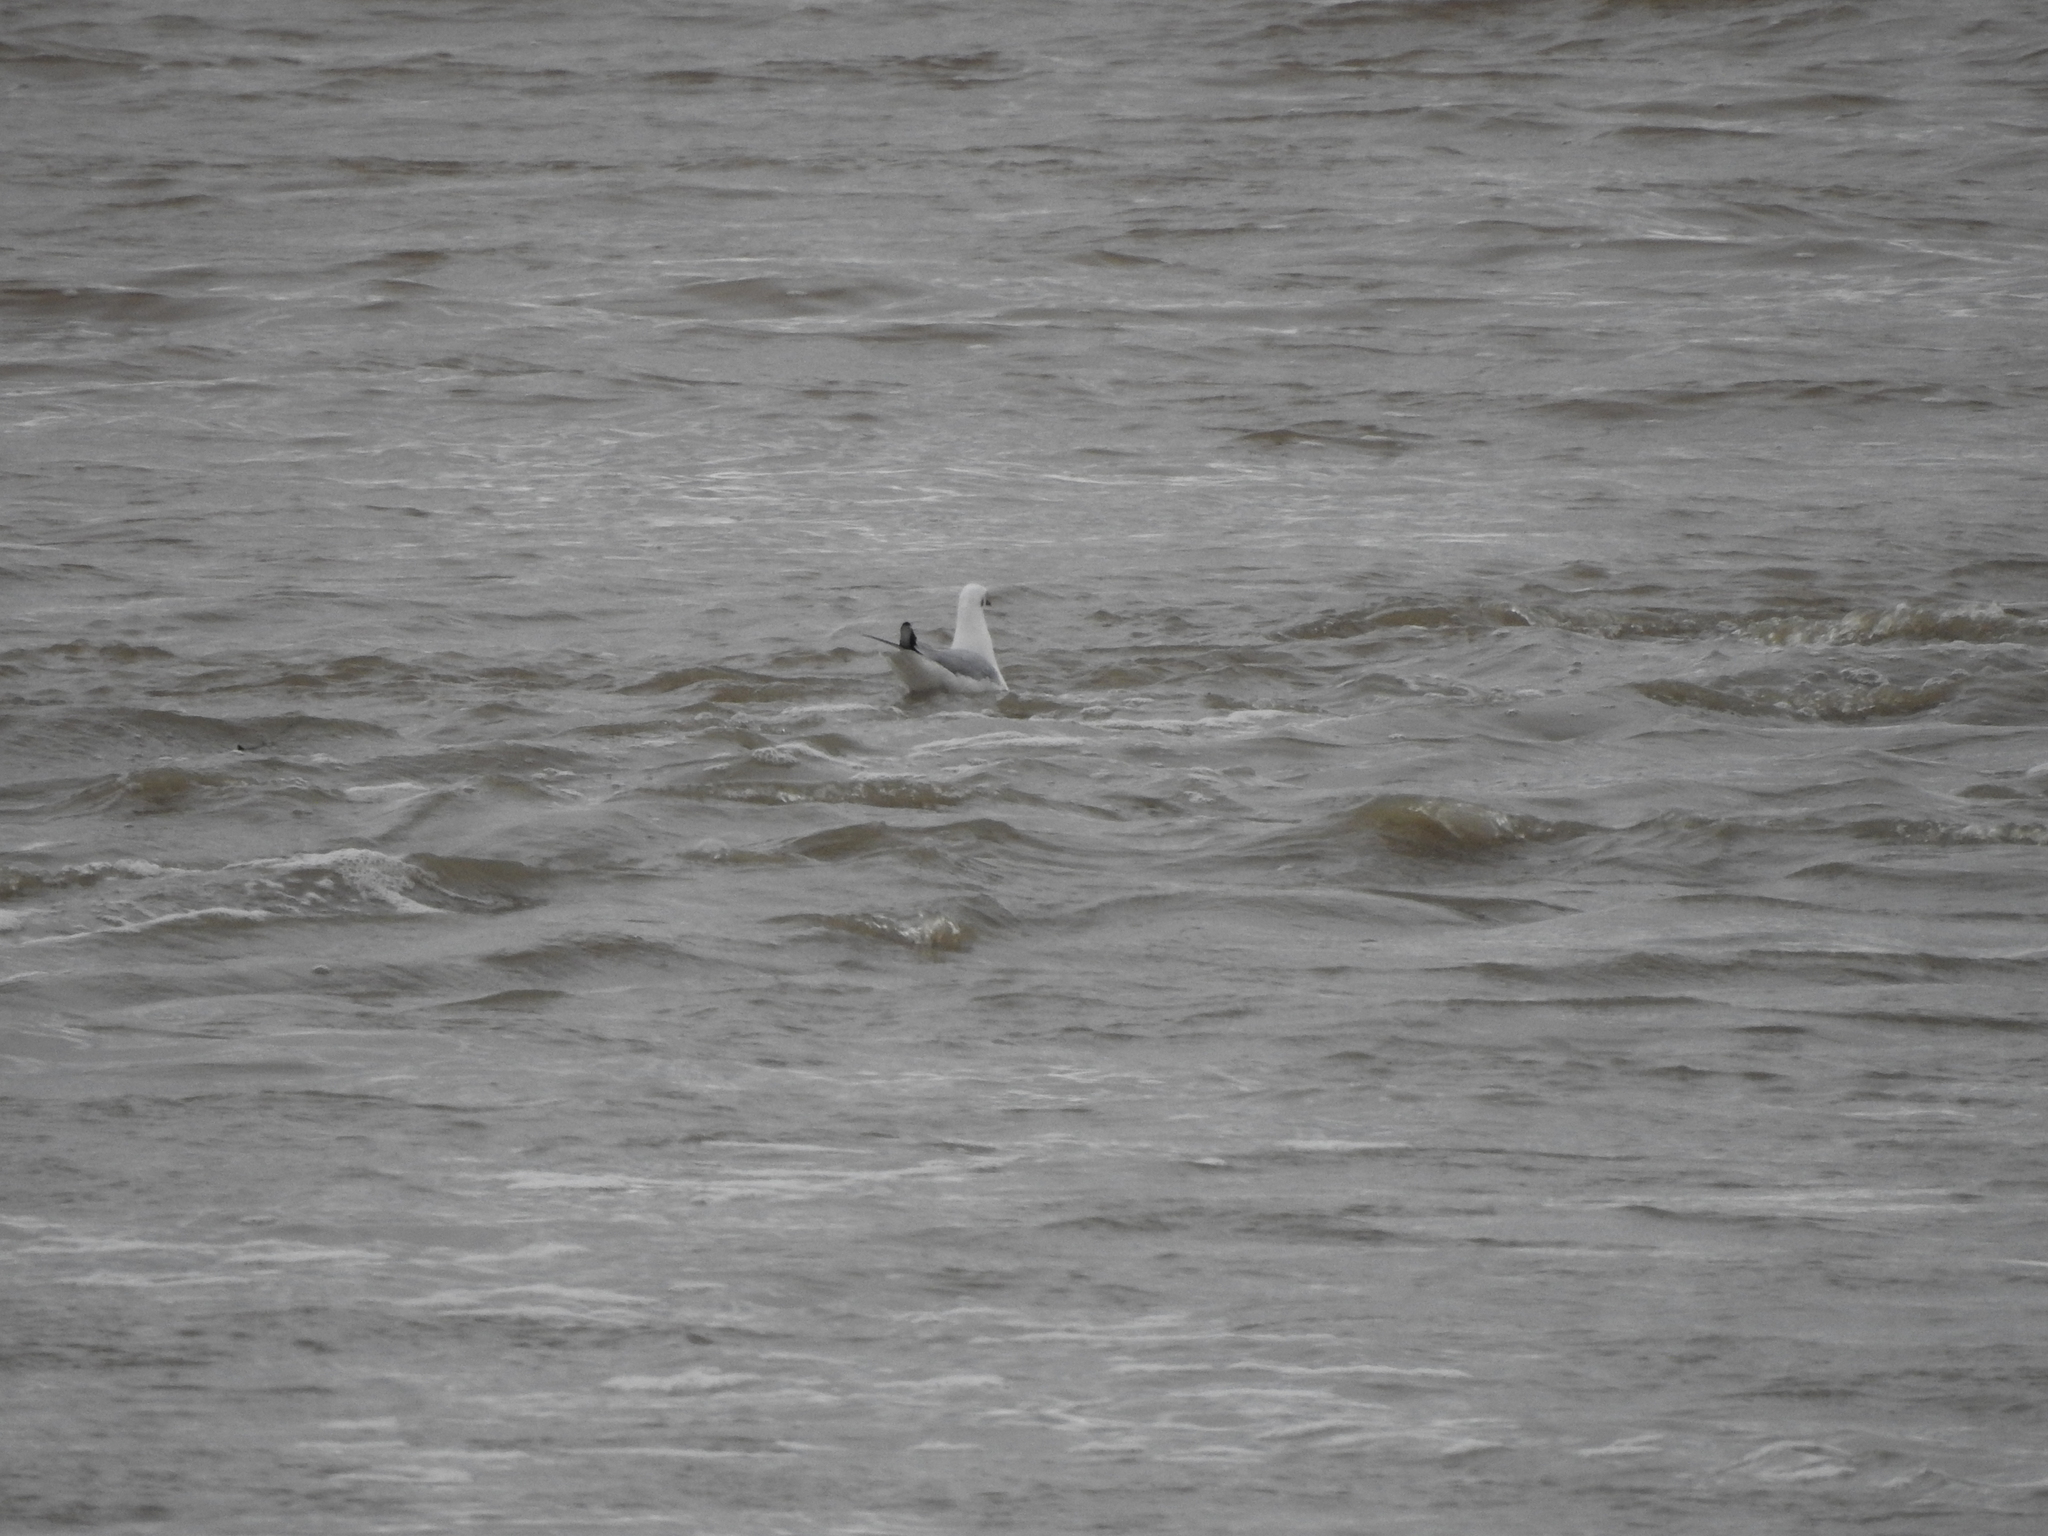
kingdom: Animalia
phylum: Chordata
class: Aves
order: Charadriiformes
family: Laridae
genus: Chroicocephalus
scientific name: Chroicocephalus ridibundus
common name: Black-headed gull
